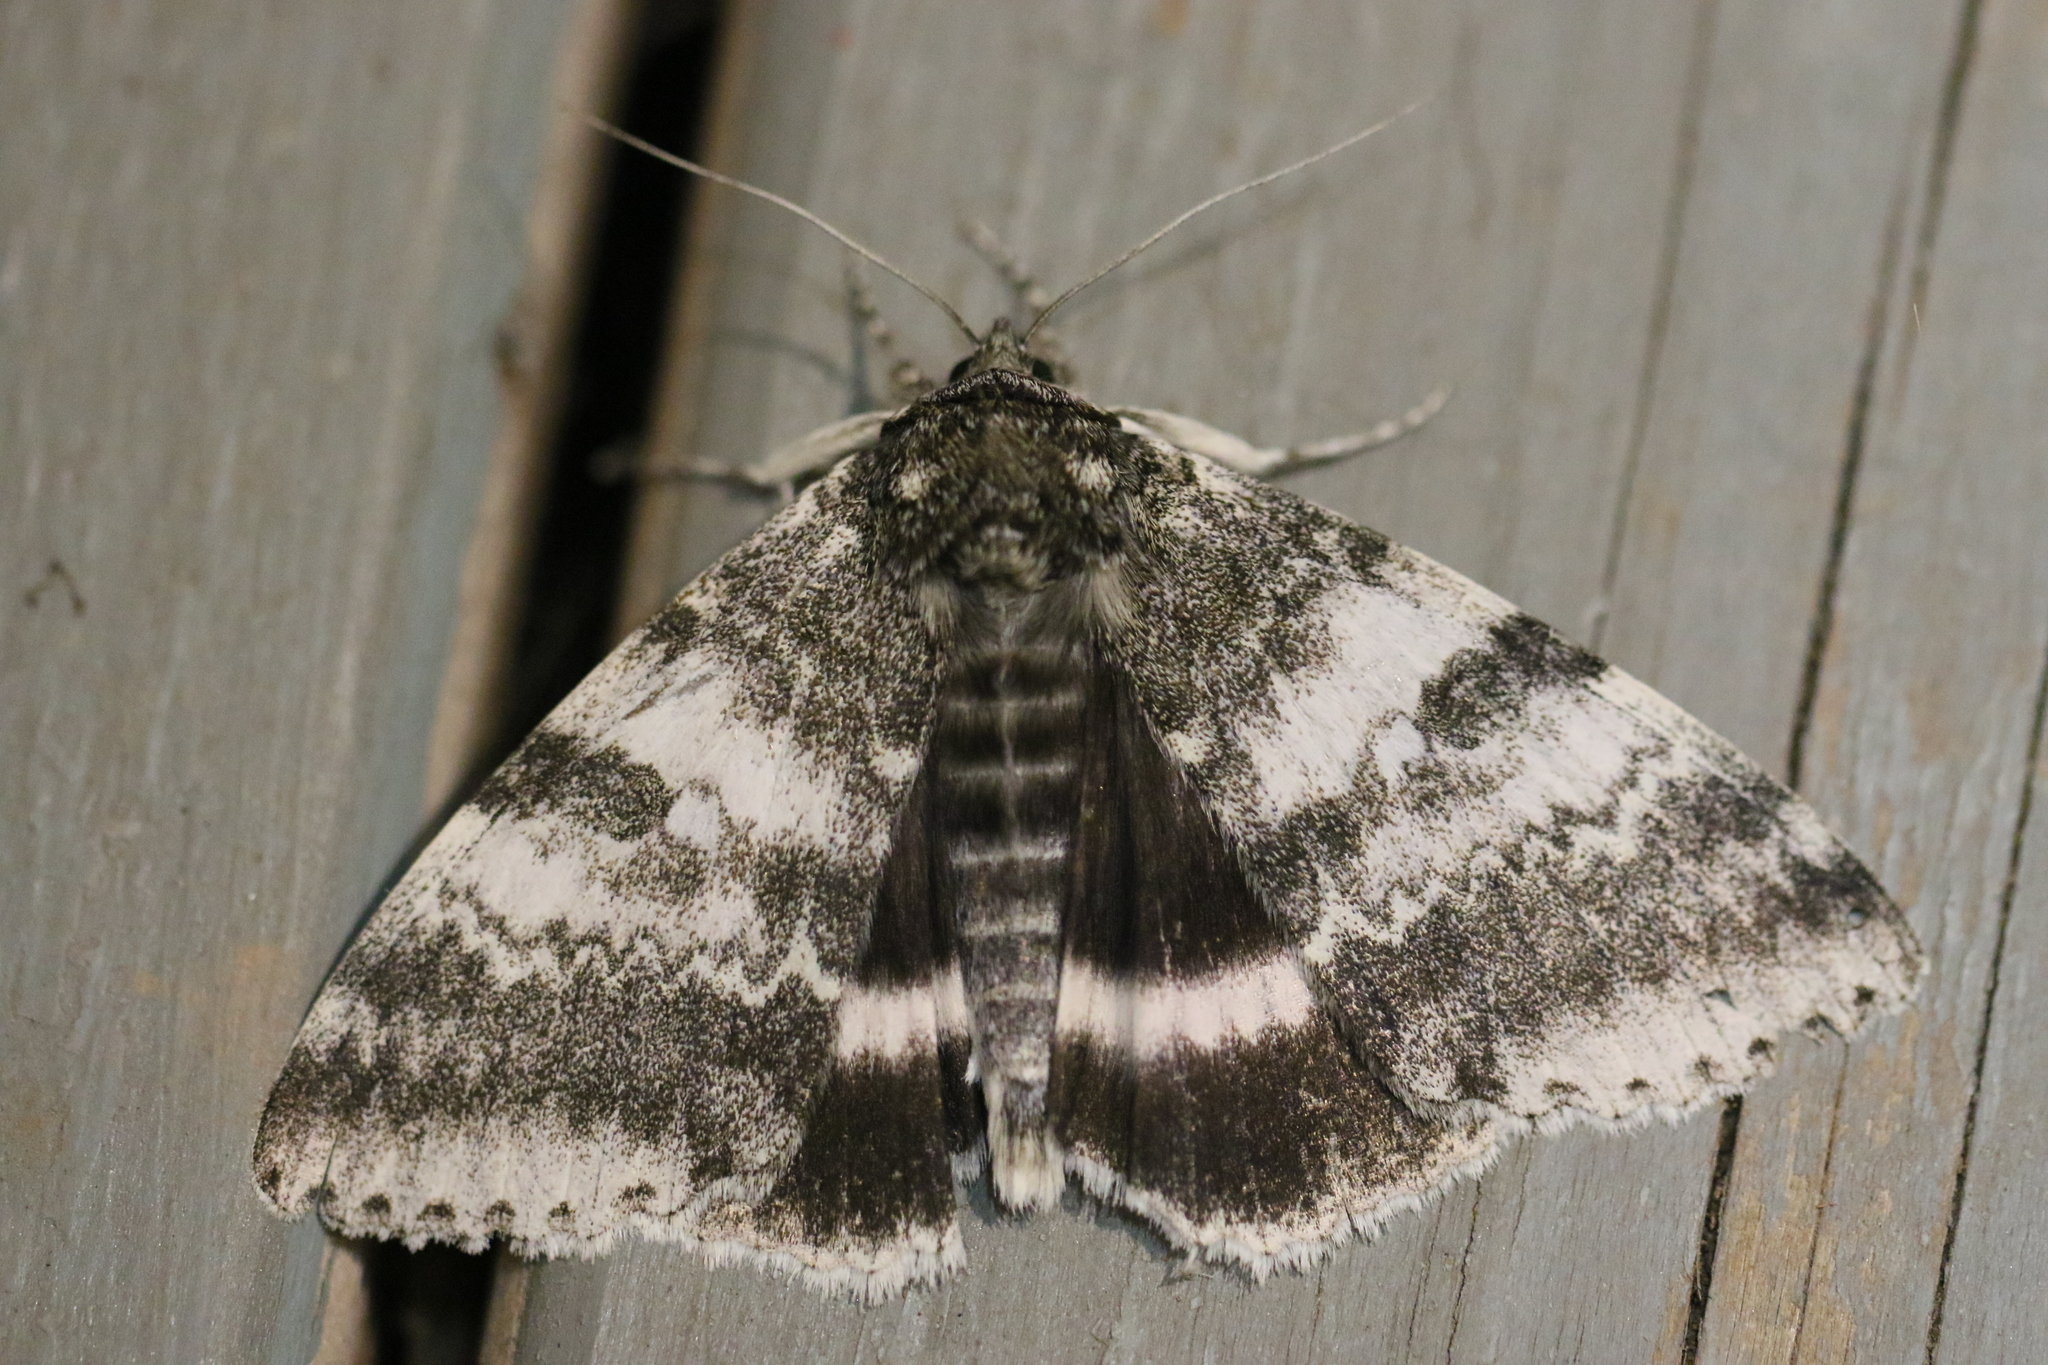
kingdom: Animalia
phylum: Arthropoda
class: Insecta
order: Lepidoptera
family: Erebidae
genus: Catocala
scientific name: Catocala relicta
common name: White underwing
